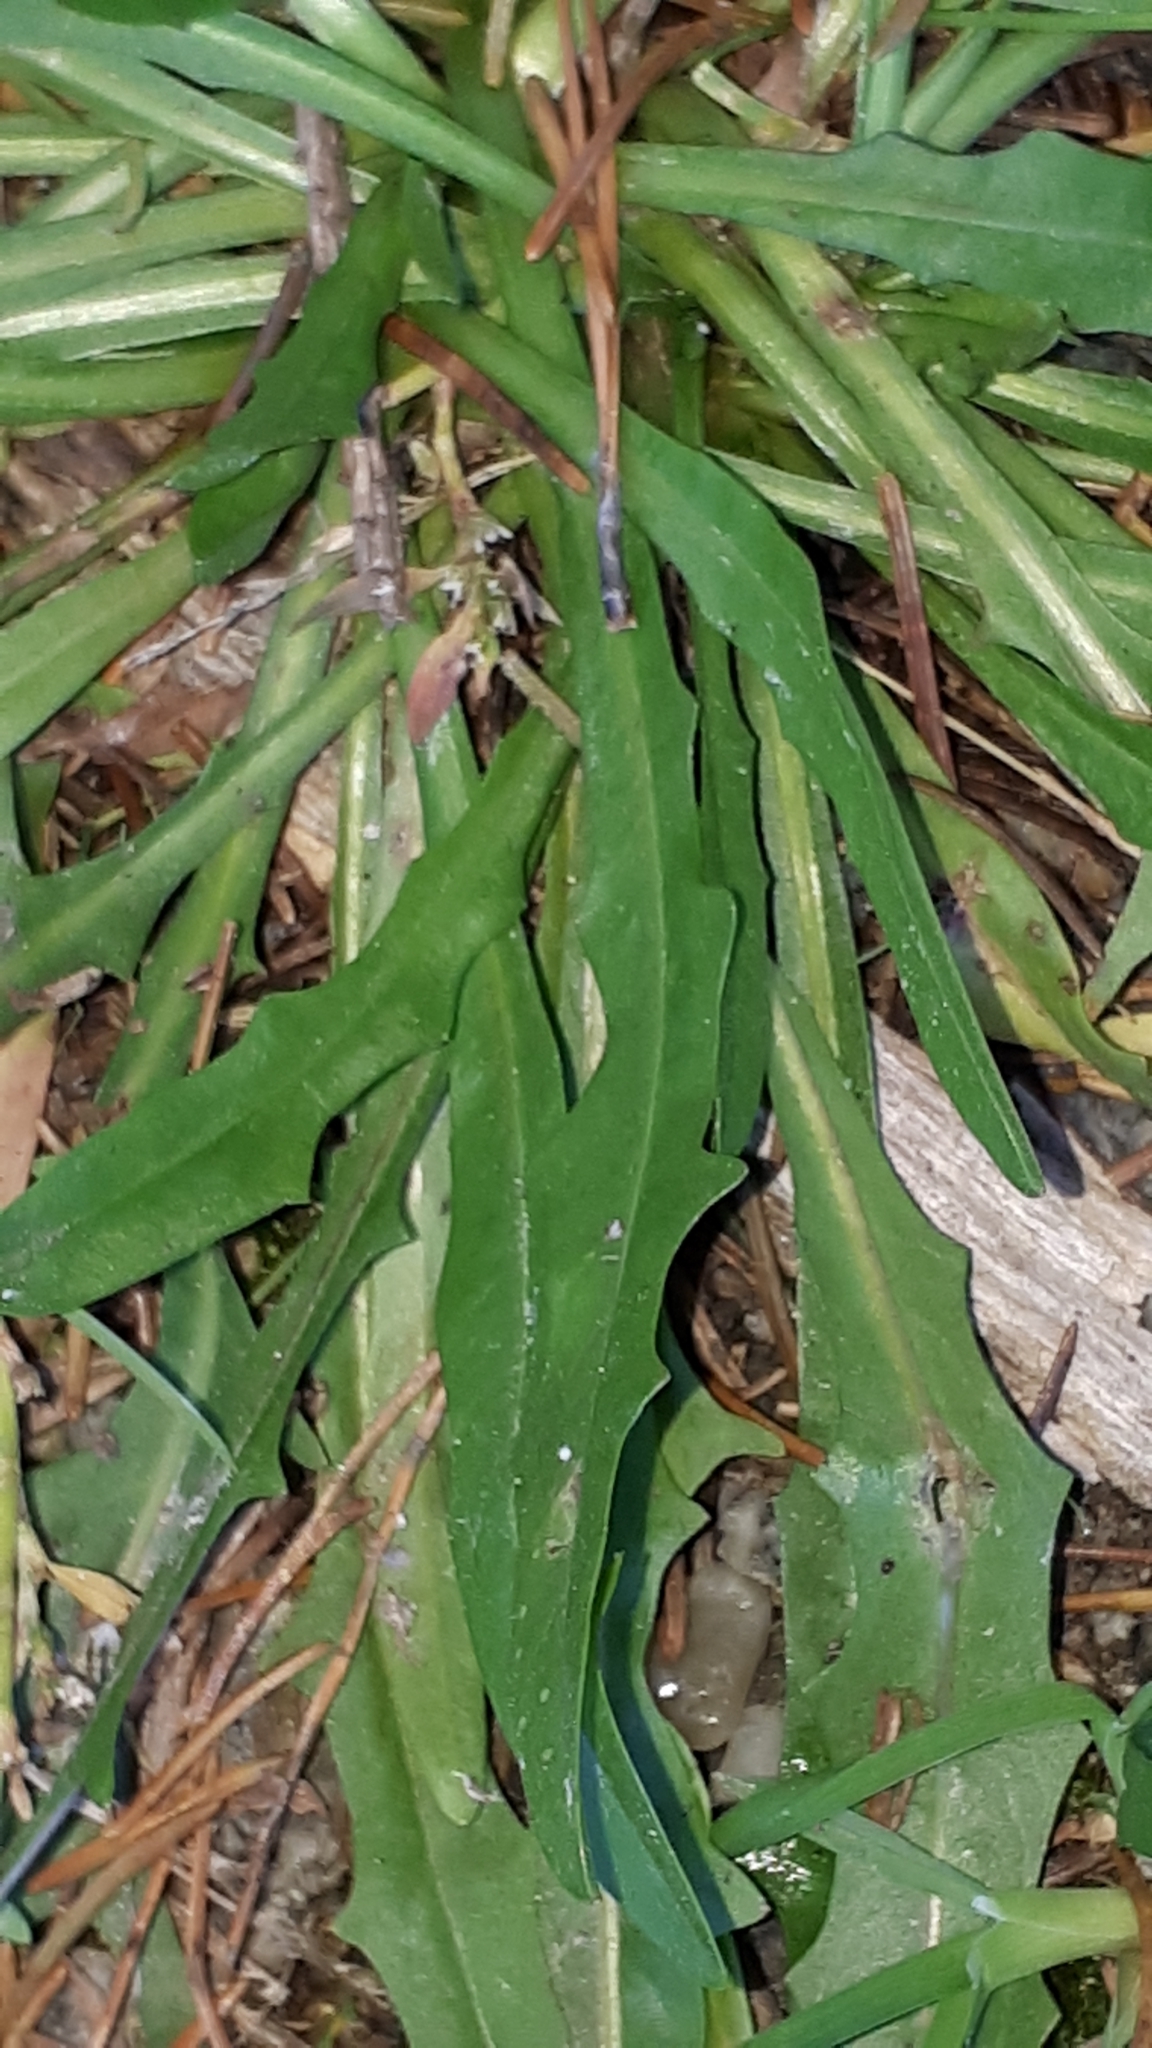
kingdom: Plantae
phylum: Tracheophyta
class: Magnoliopsida
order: Asterales
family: Asteraceae
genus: Leontodon
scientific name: Leontodon hispidus
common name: Rough hawkbit
